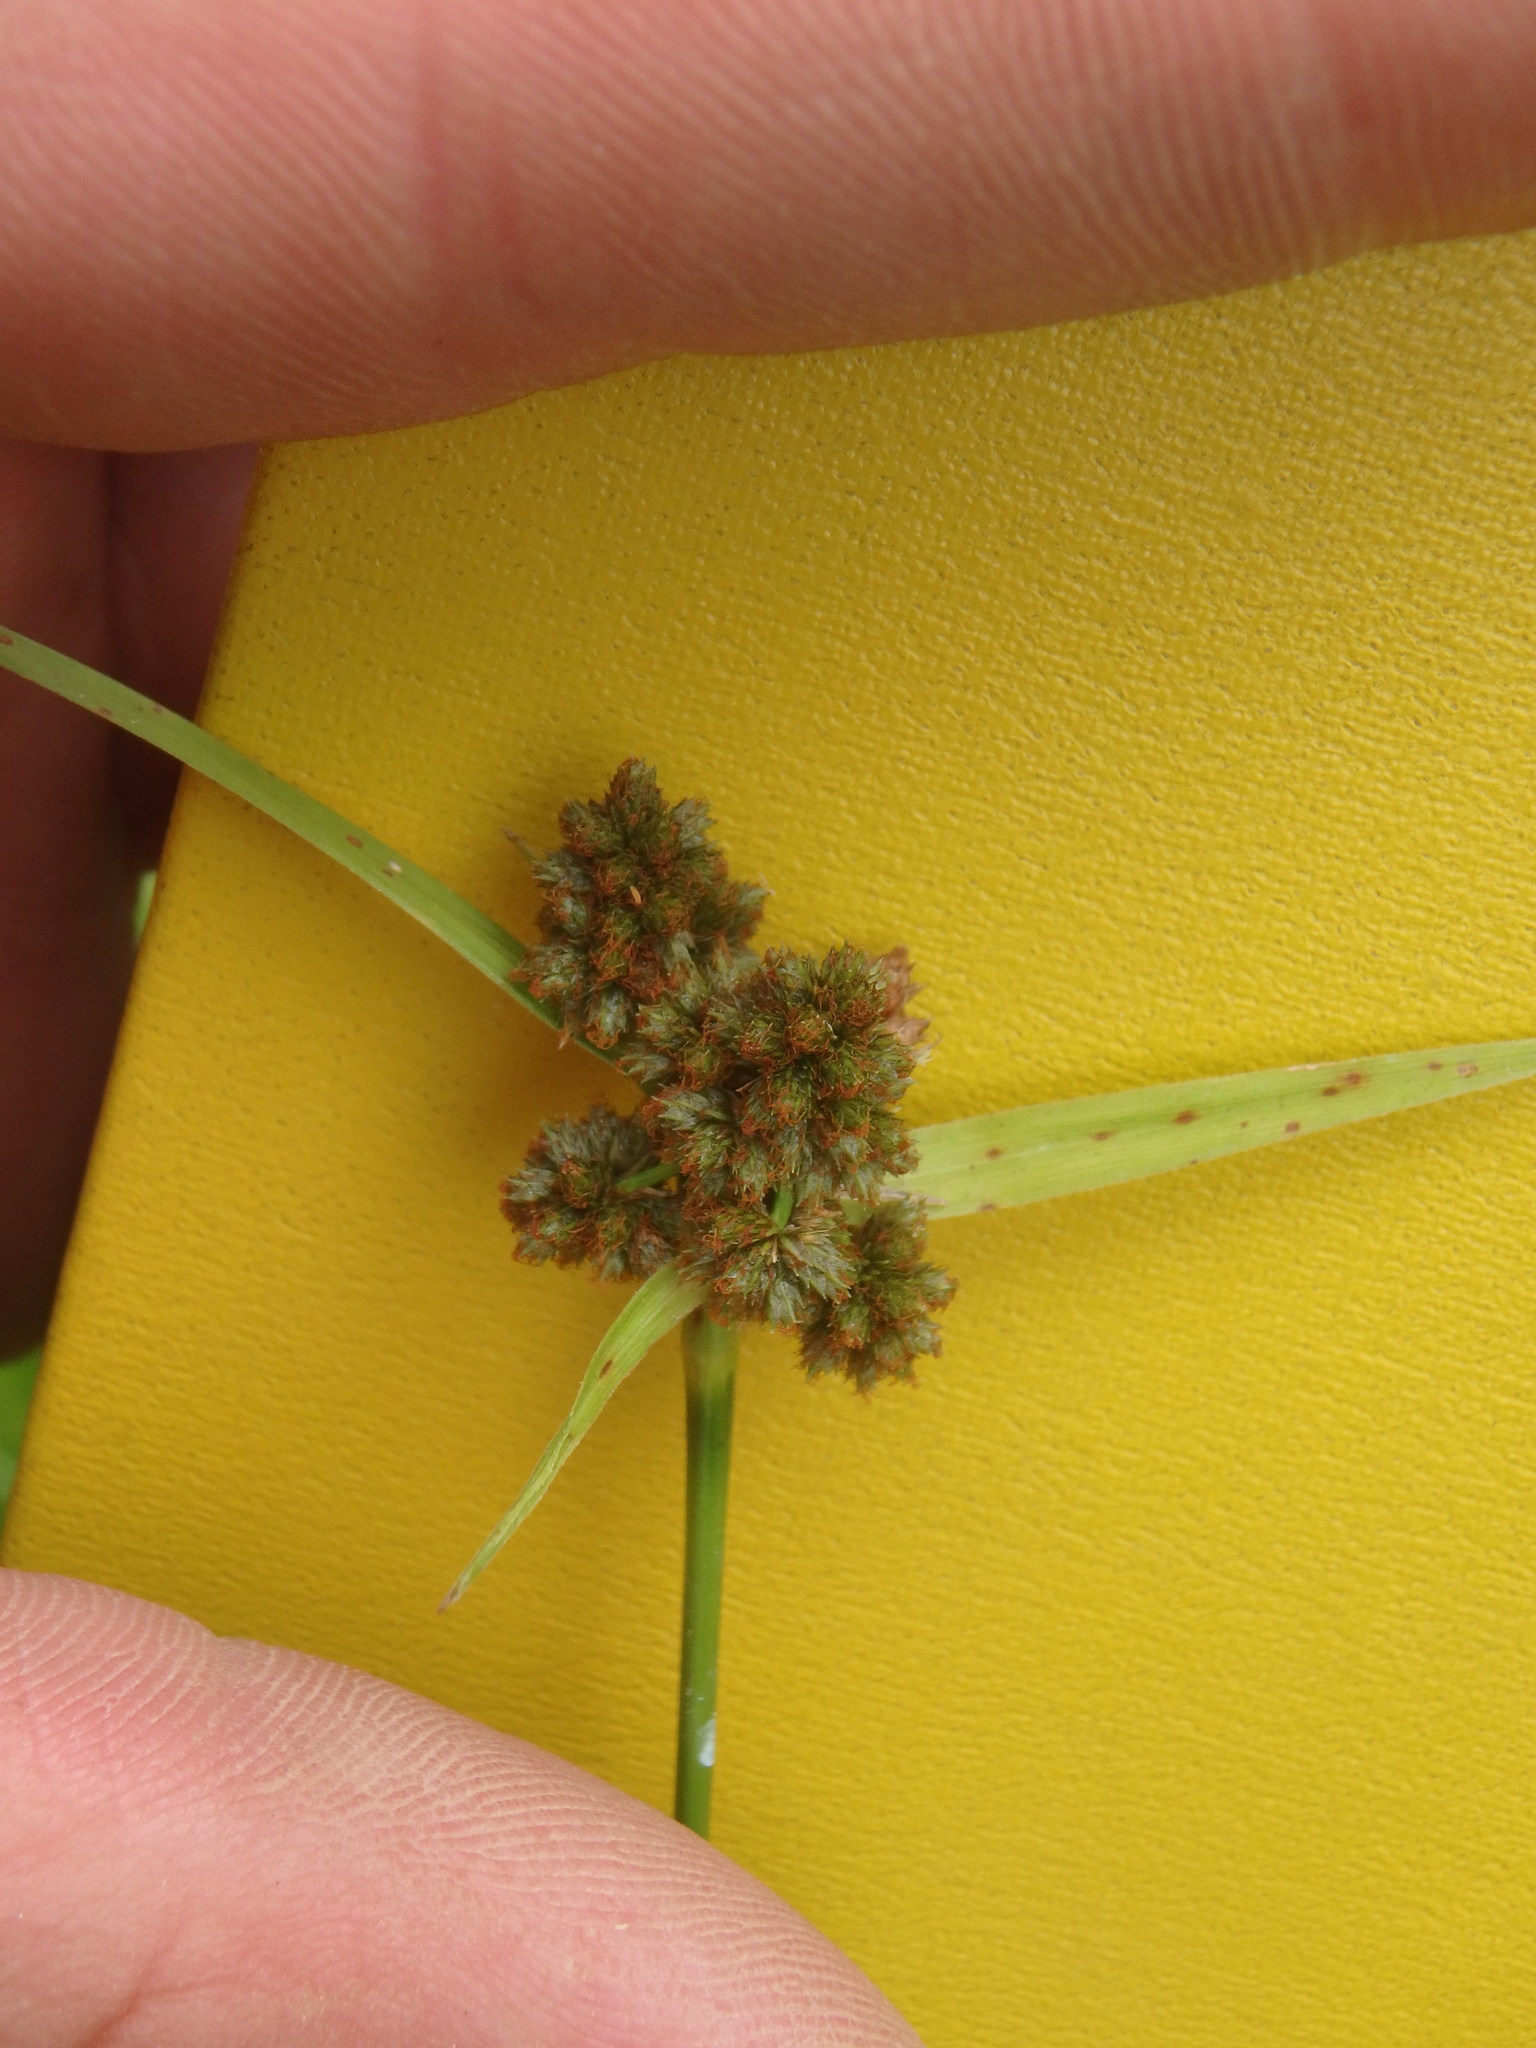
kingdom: Plantae
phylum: Tracheophyta
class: Liliopsida
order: Poales
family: Cyperaceae
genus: Scirpus
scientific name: Scirpus atrovirens
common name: Black bulrush
